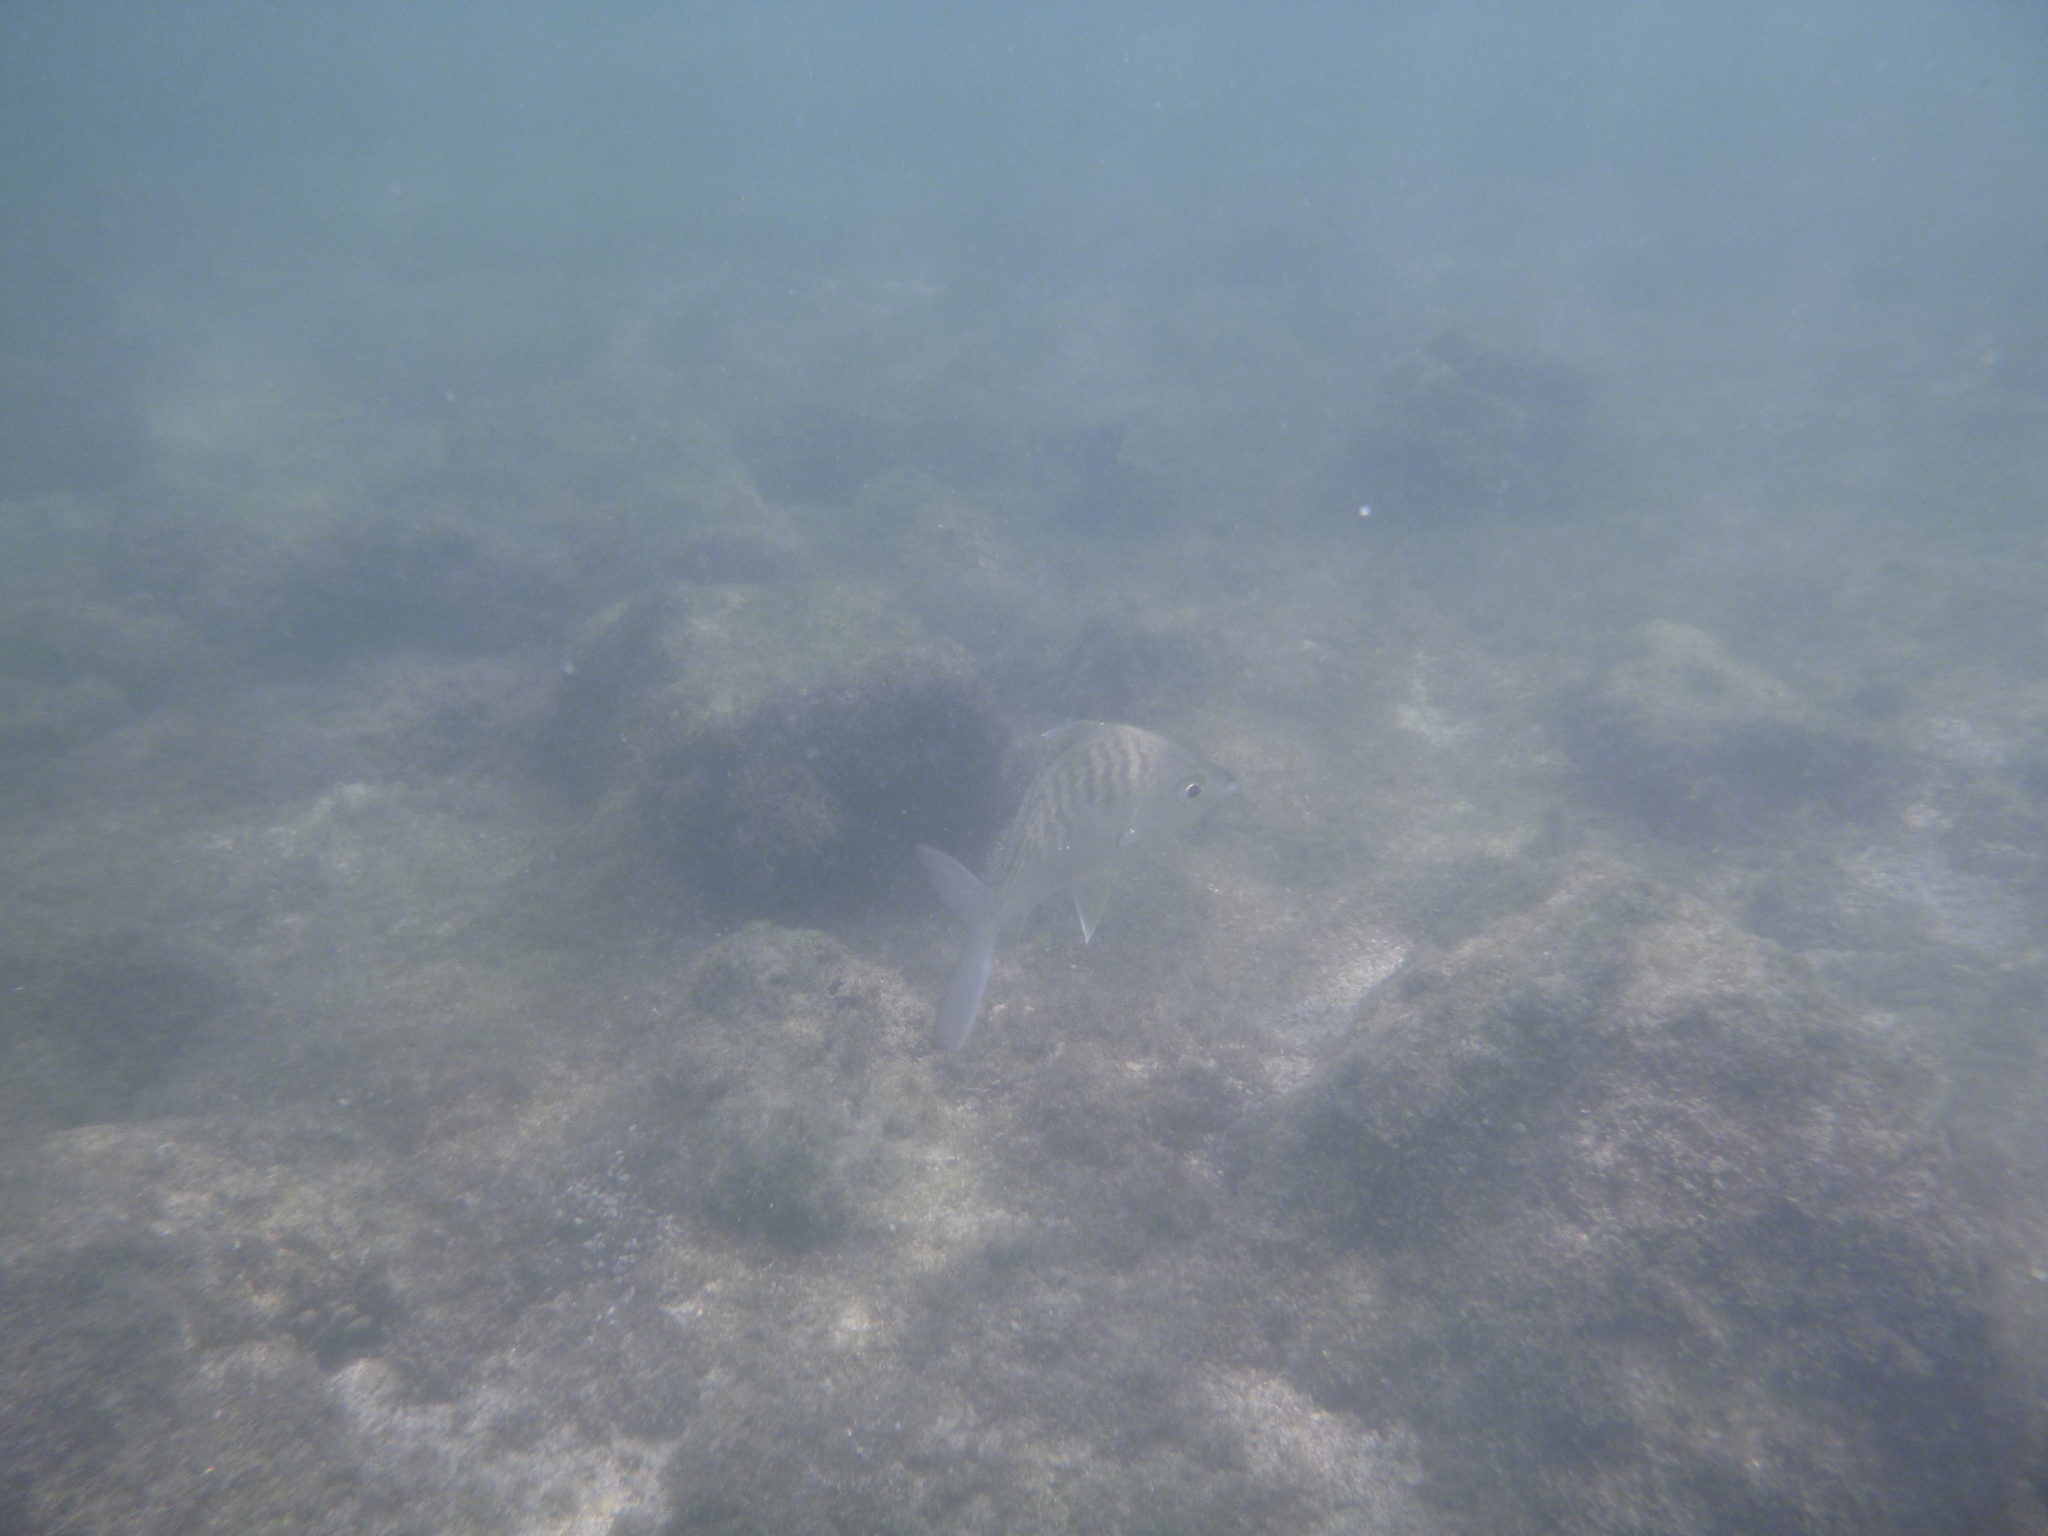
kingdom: Animalia
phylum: Chordata
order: Perciformes
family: Gerreidae
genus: Gerres
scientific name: Gerres simillimus
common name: Yellow fin mojarra
